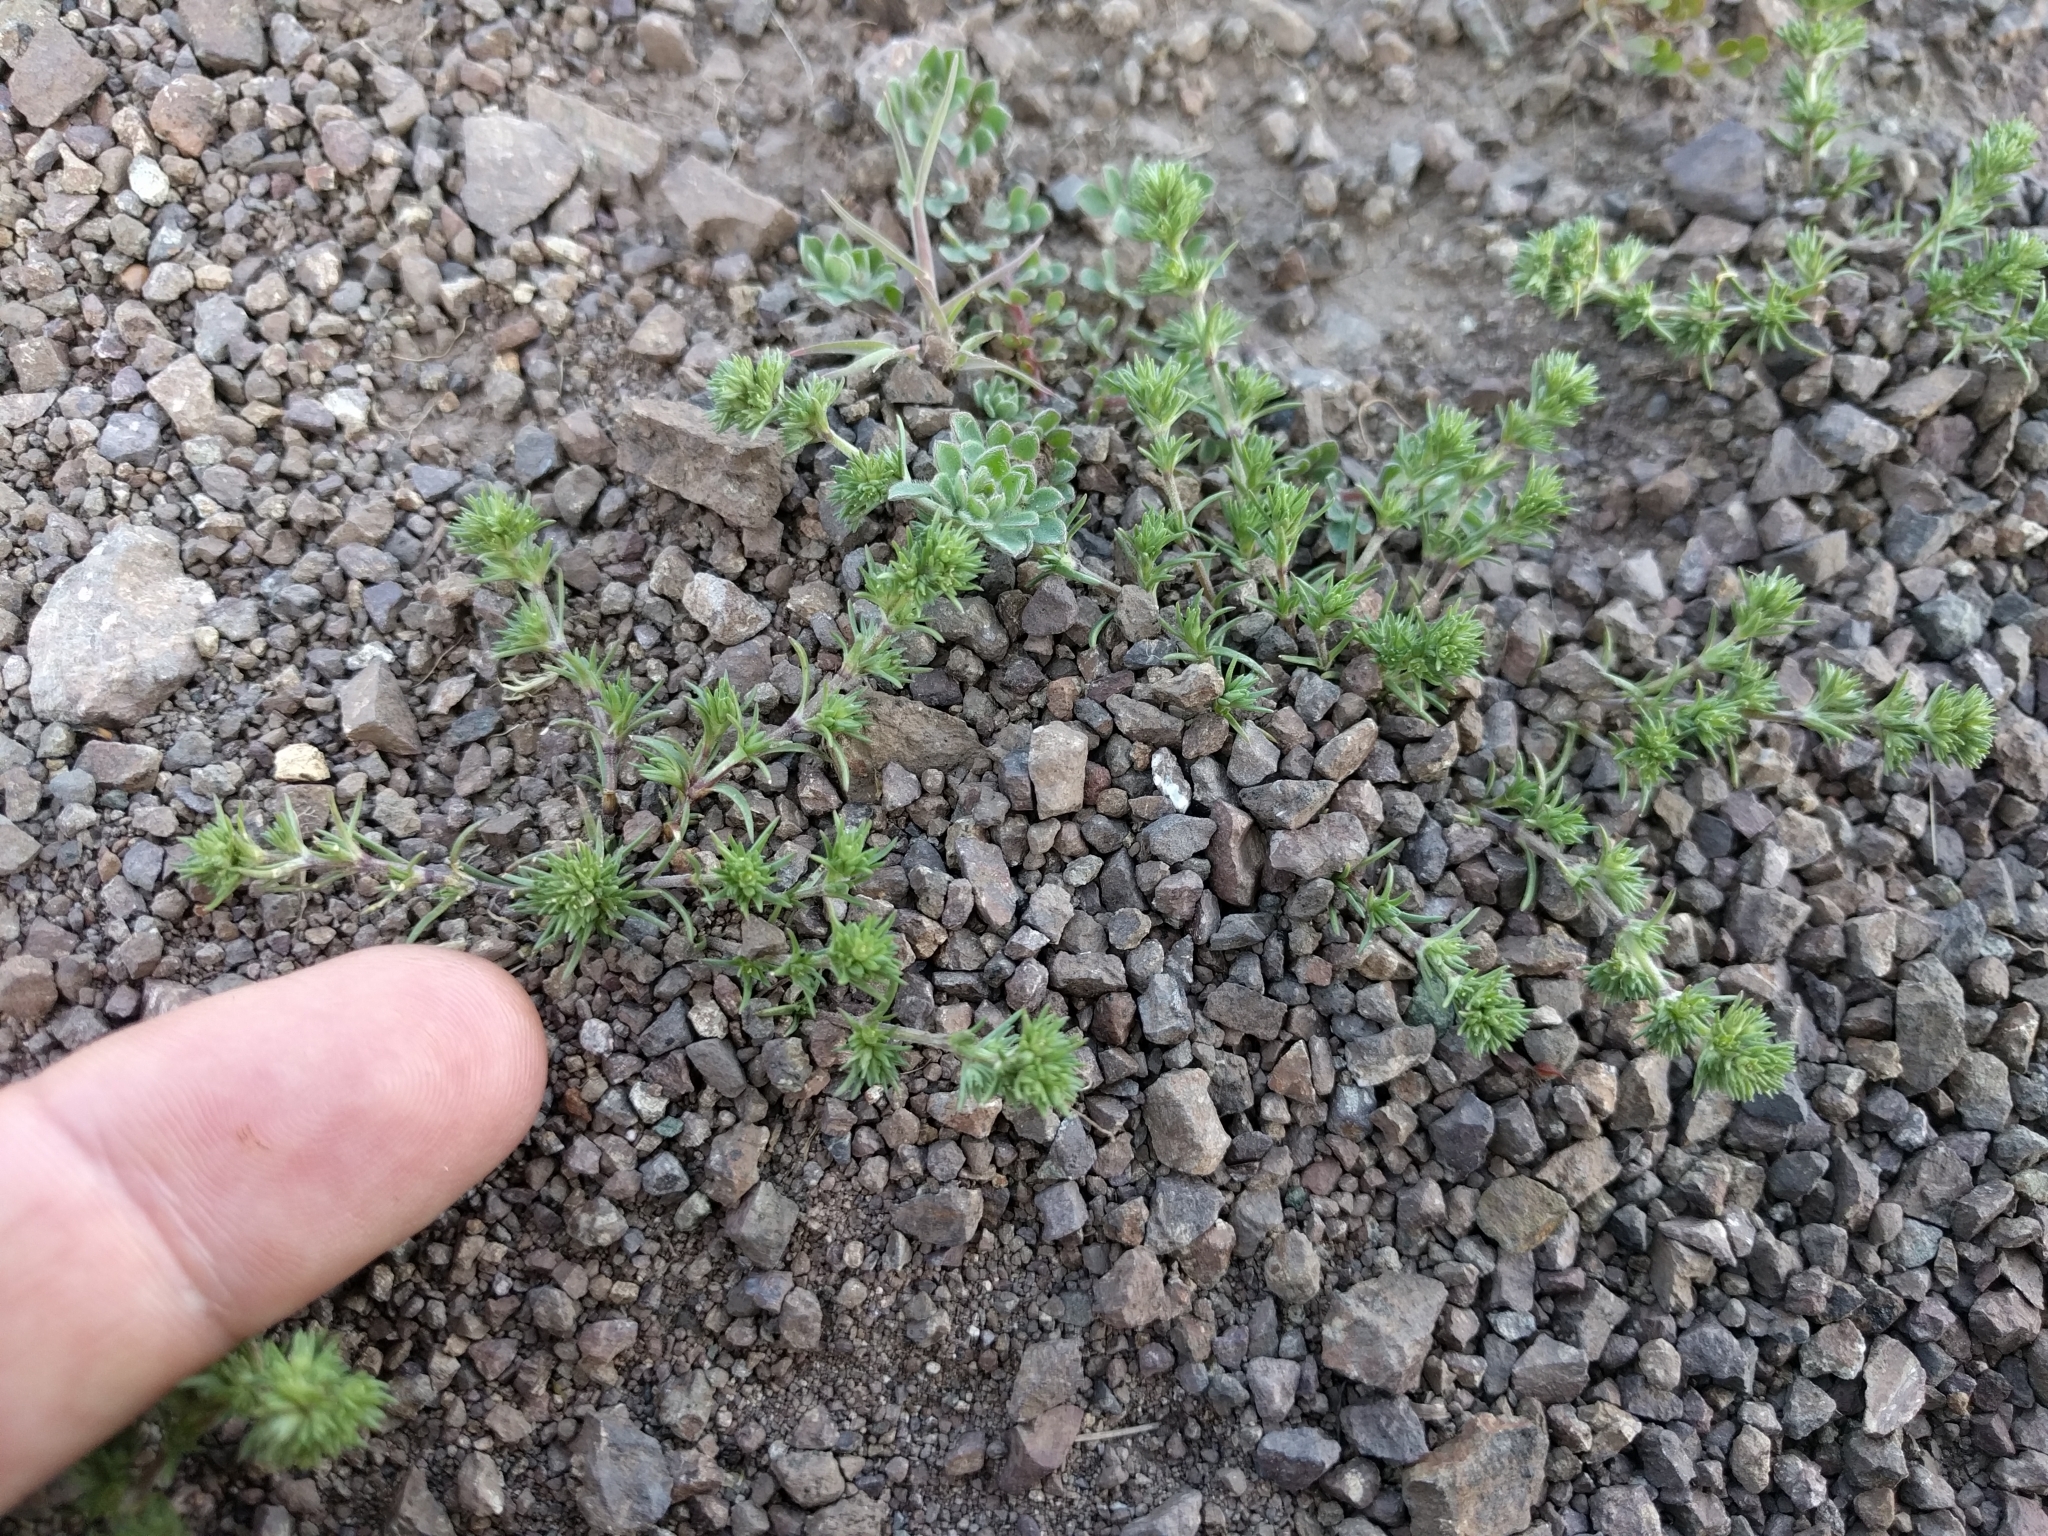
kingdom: Plantae
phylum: Tracheophyta
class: Magnoliopsida
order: Caryophyllales
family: Caryophyllaceae
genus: Scleranthus
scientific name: Scleranthus annuus
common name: Annual knawel
